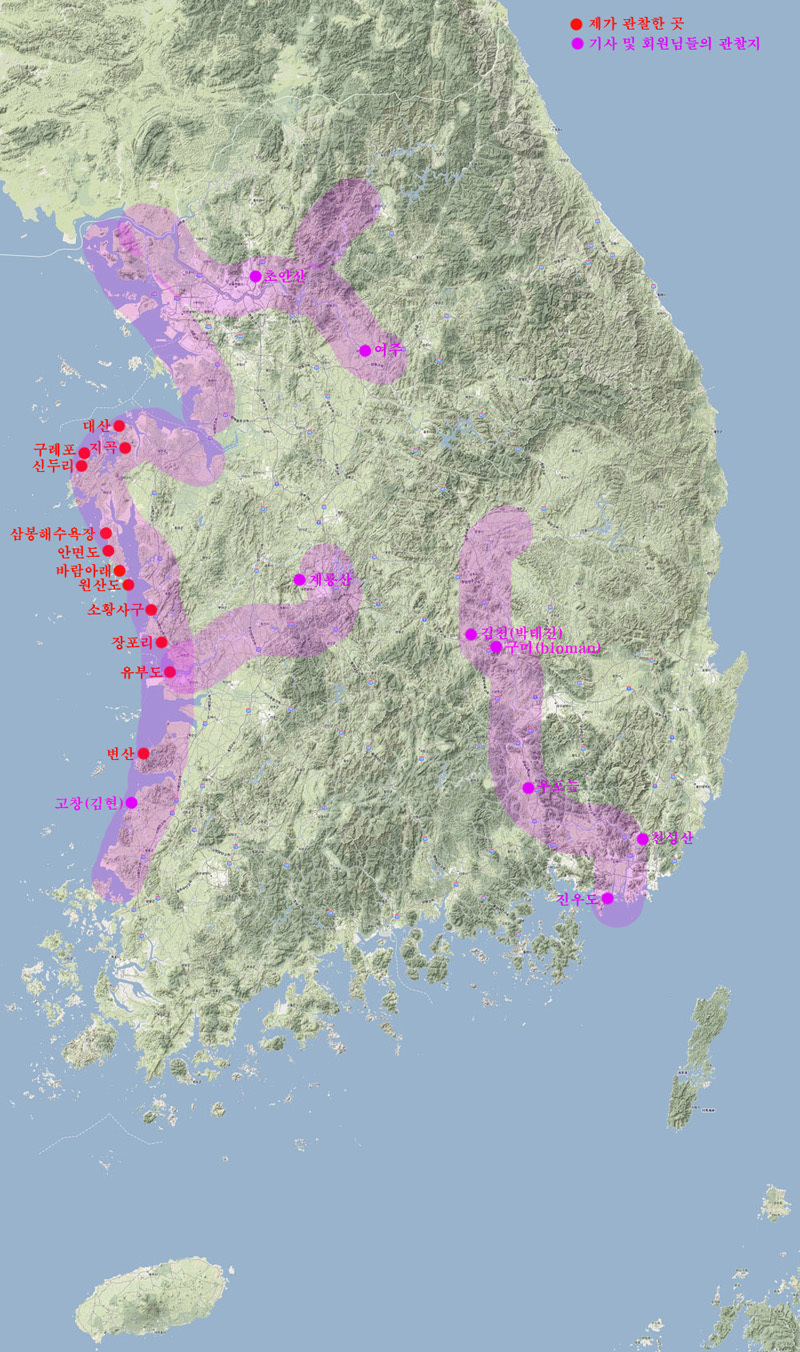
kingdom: Animalia
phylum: Chordata
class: Squamata
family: Lacertidae
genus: Eremias
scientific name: Eremias argus
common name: Mongolia racerunner
